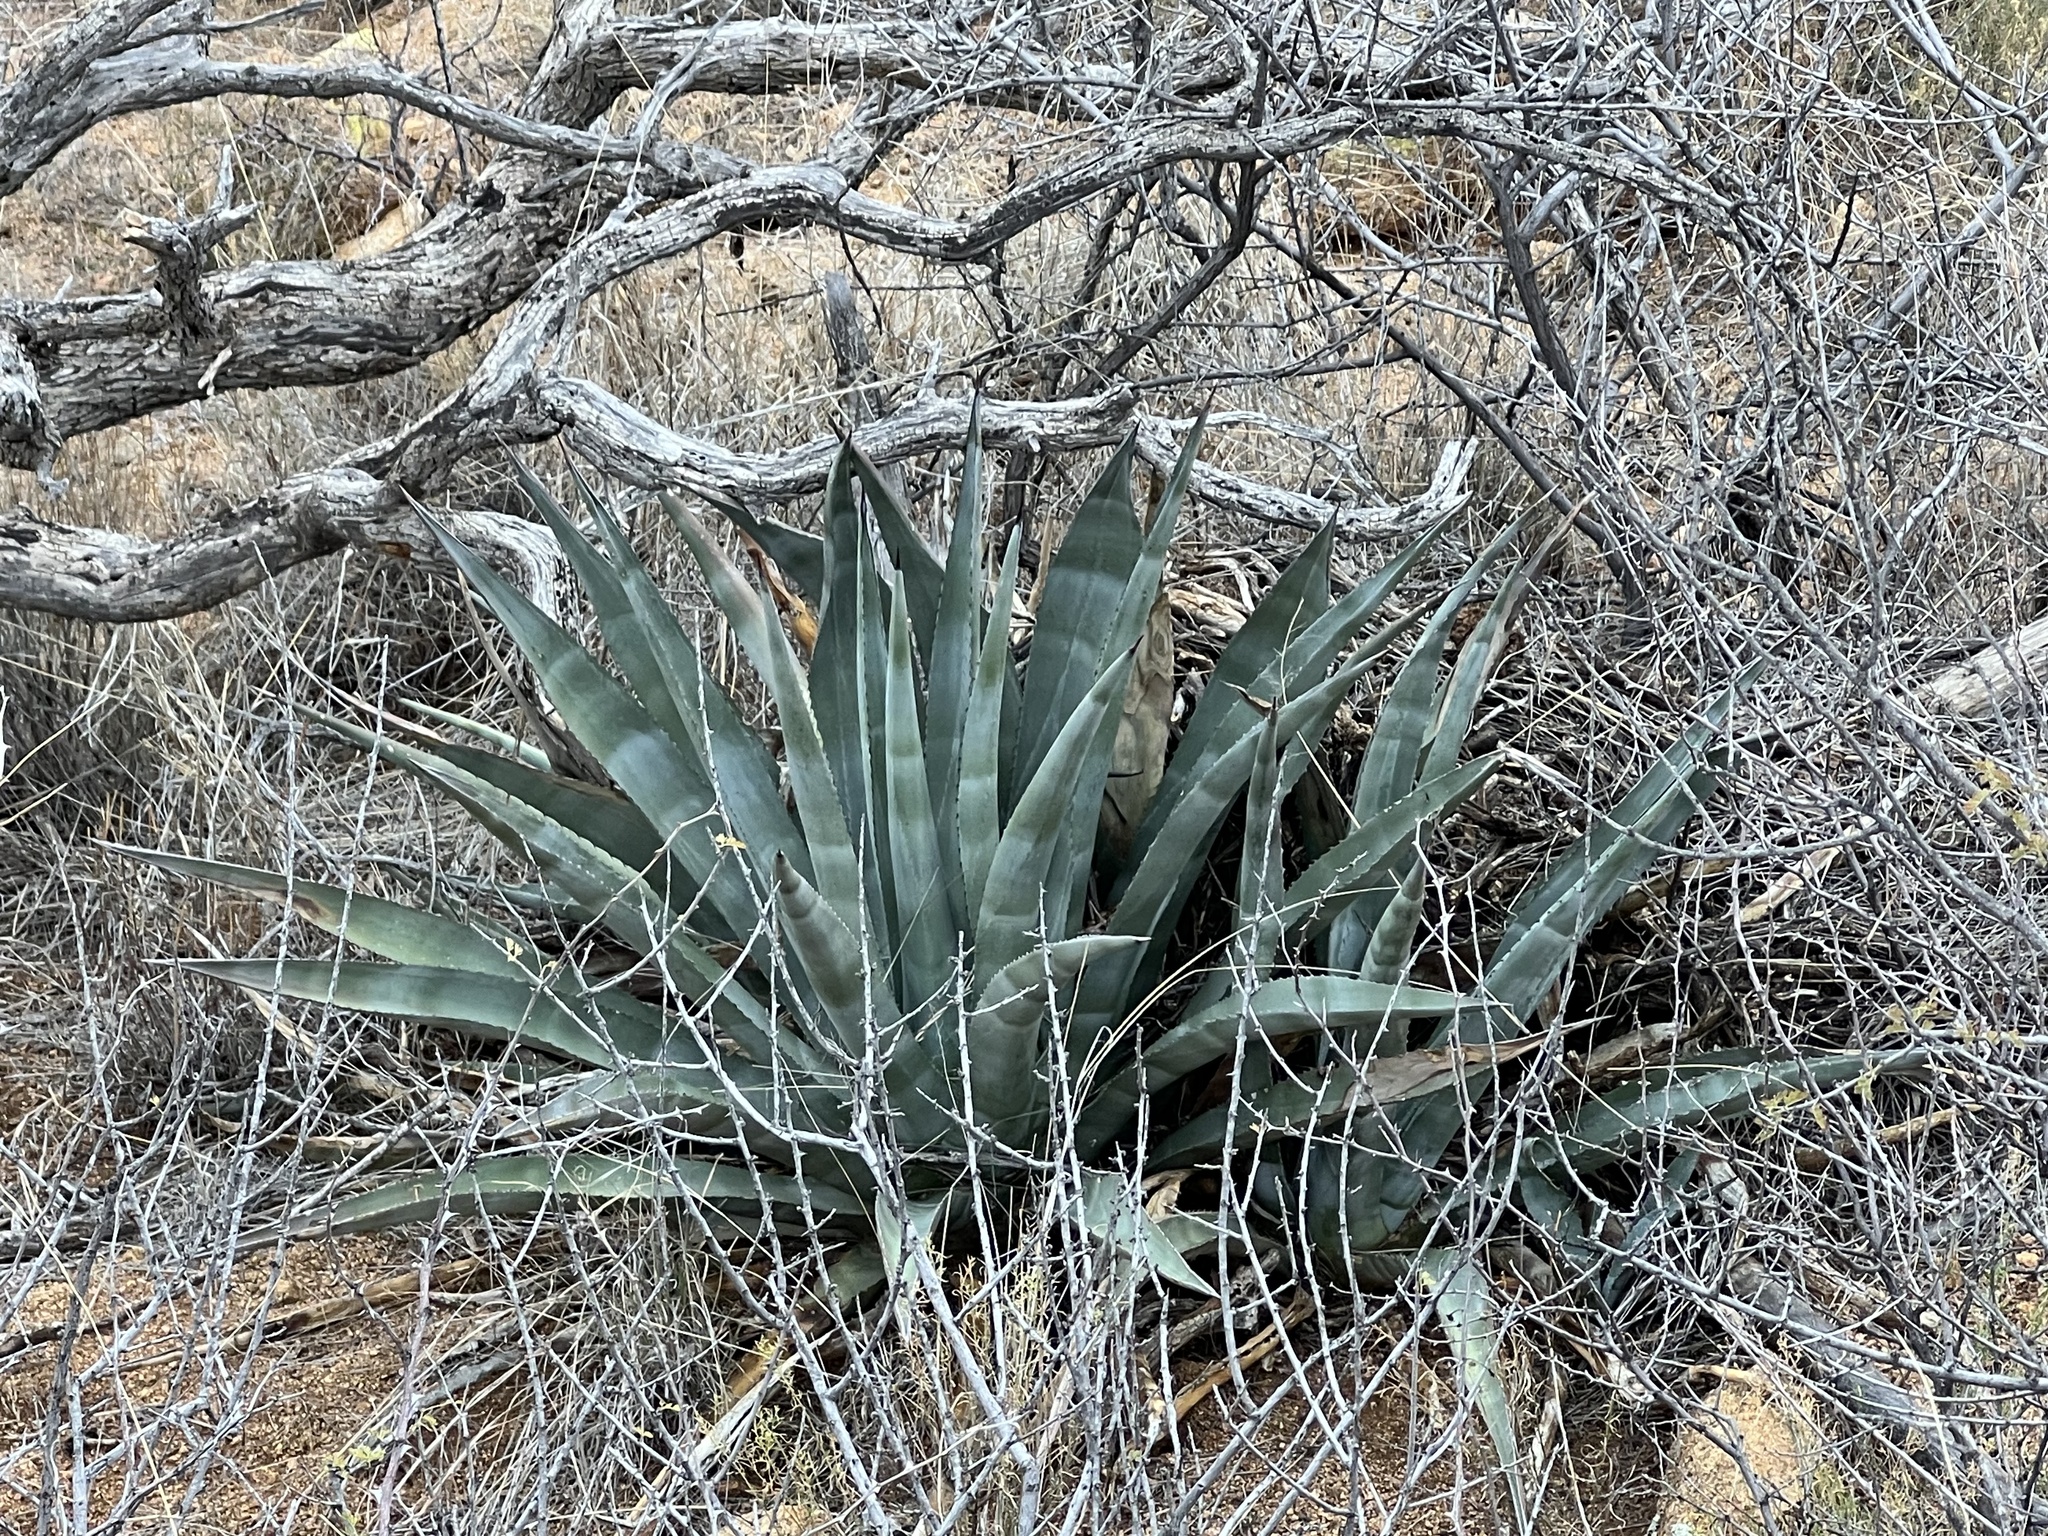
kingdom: Plantae
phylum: Tracheophyta
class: Liliopsida
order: Asparagales
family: Asparagaceae
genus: Agave
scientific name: Agave palmeri
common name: Palmer agave
